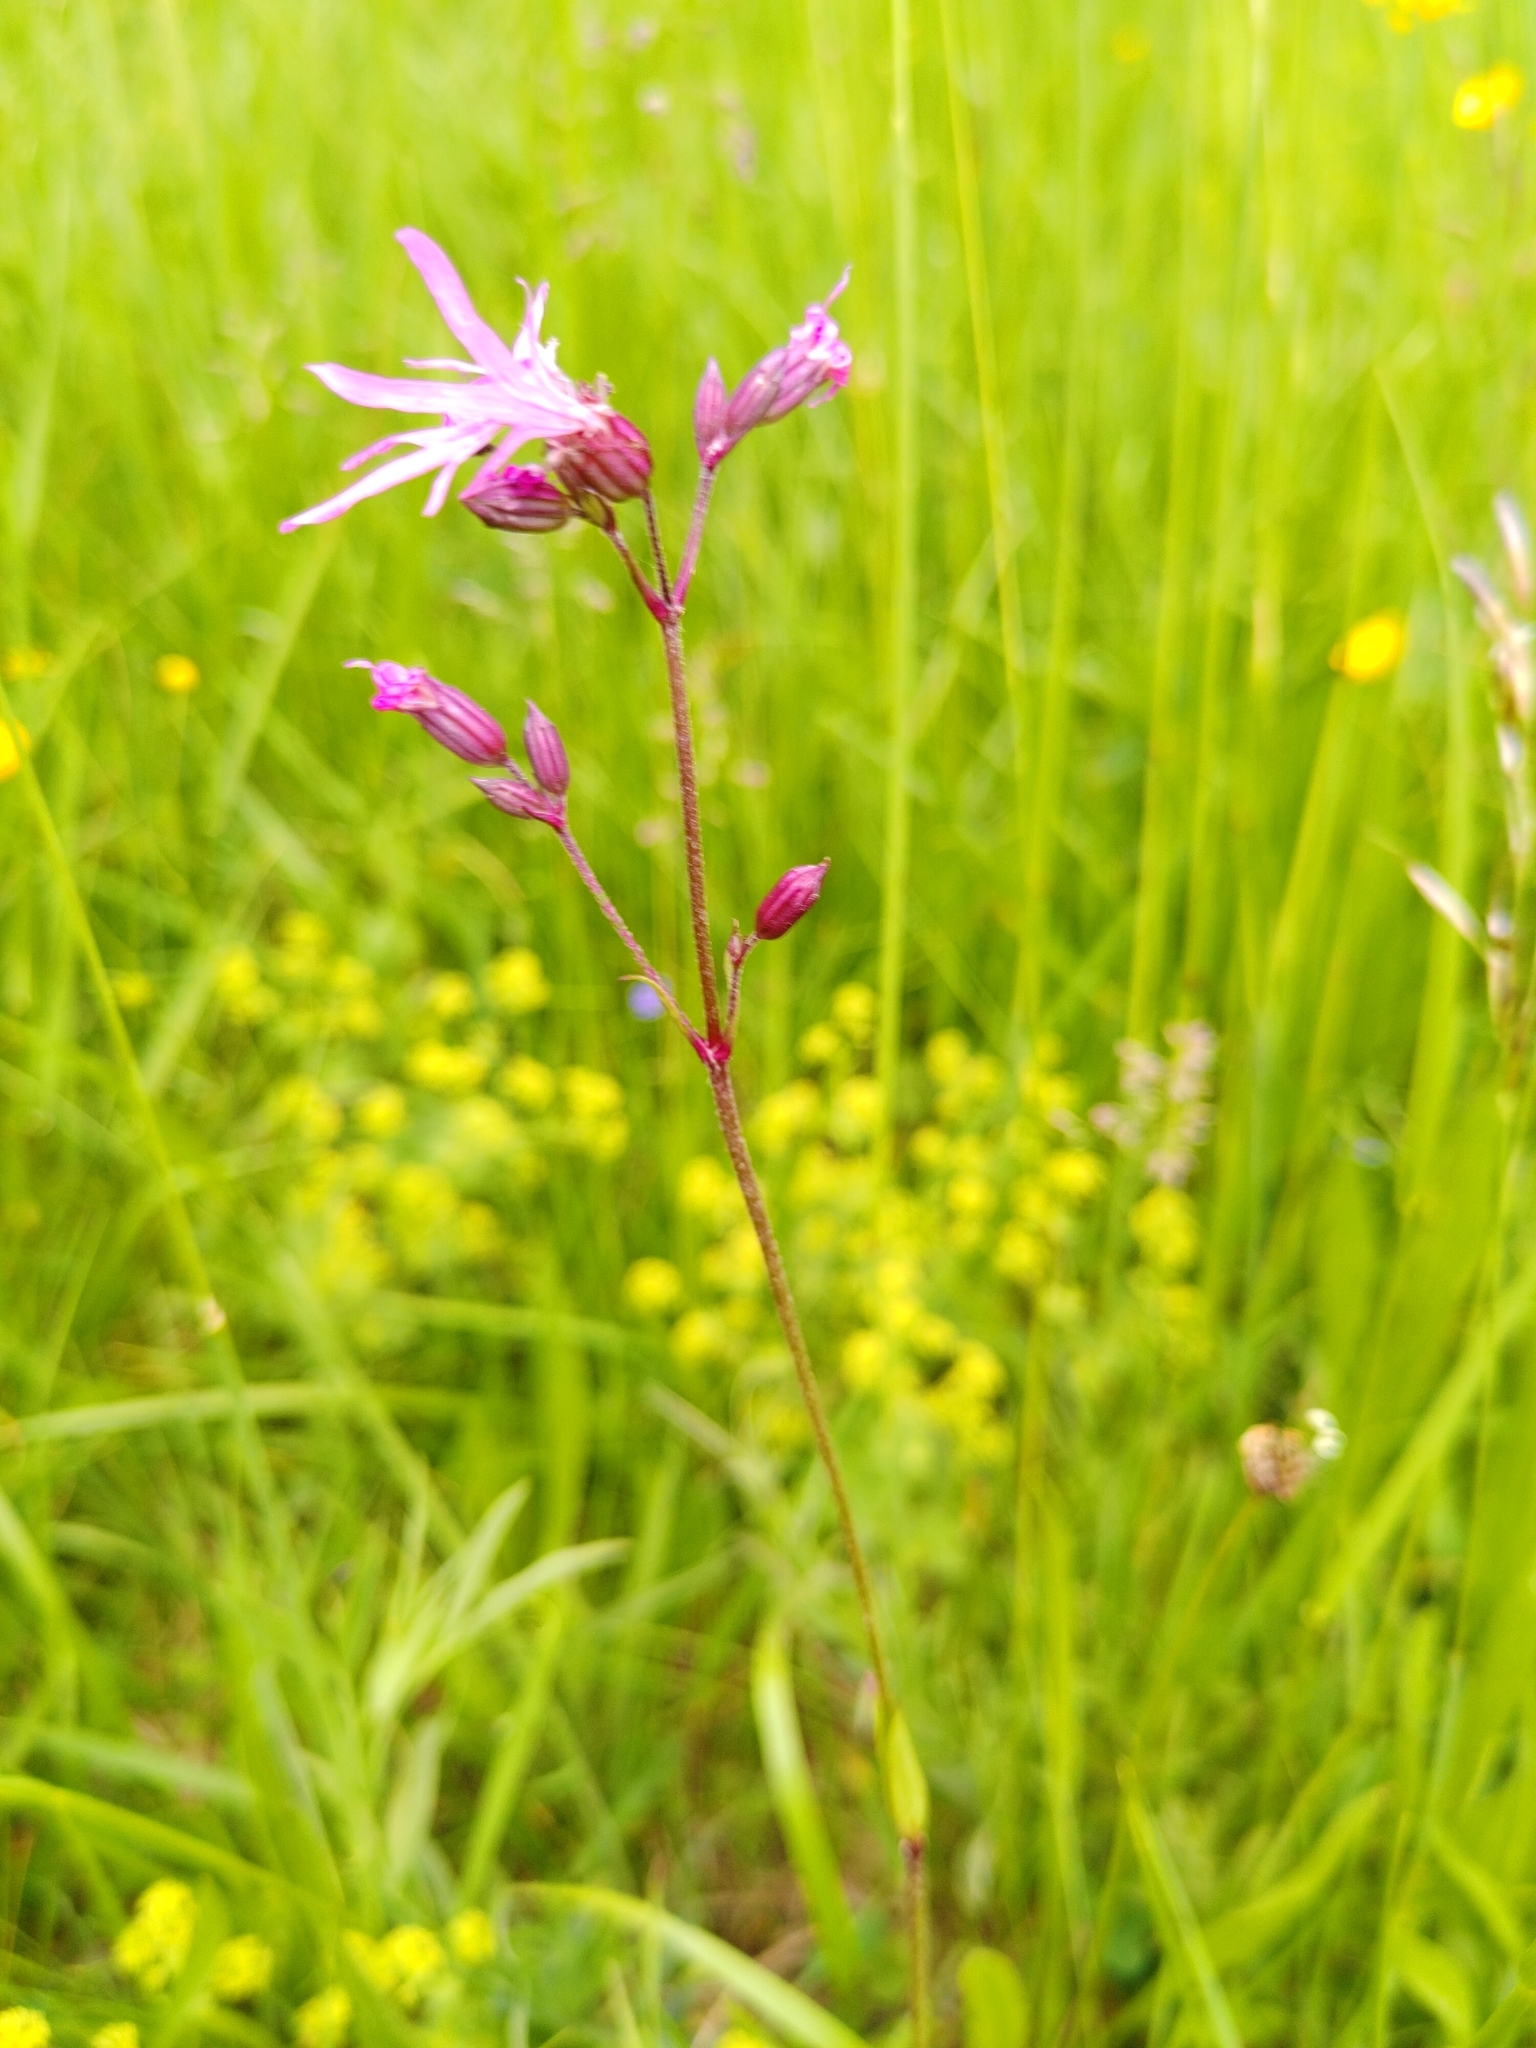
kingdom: Plantae
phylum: Tracheophyta
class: Magnoliopsida
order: Caryophyllales
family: Caryophyllaceae
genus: Silene
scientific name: Silene flos-cuculi
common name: Ragged-robin
